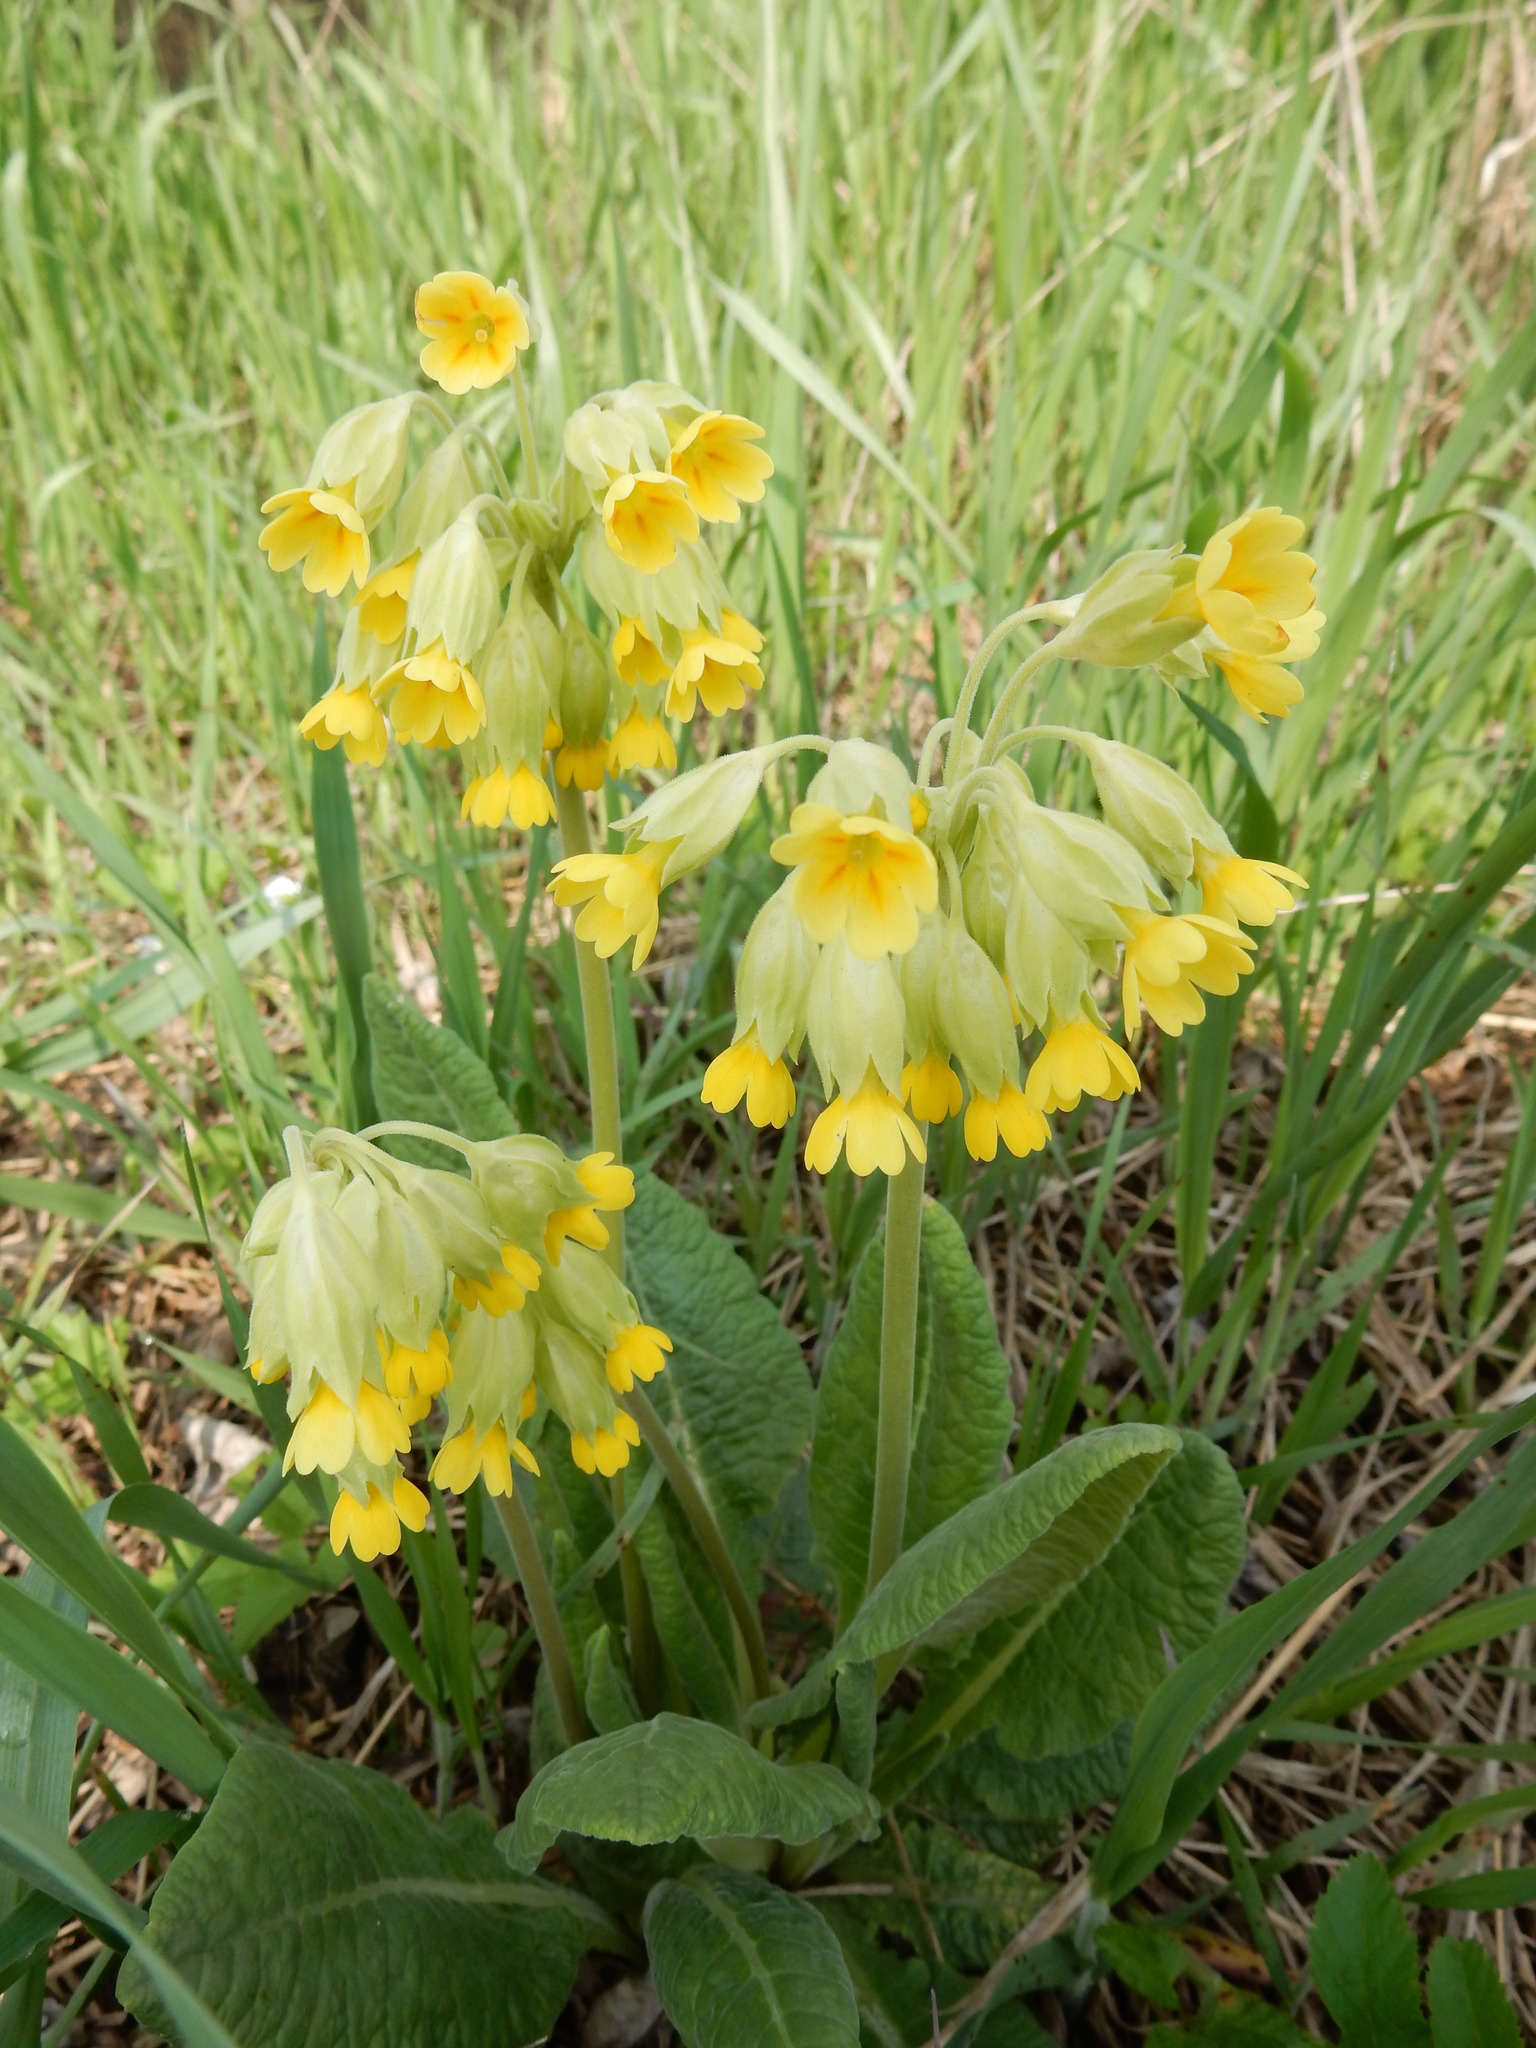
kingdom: Plantae
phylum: Tracheophyta
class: Magnoliopsida
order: Ericales
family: Primulaceae
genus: Primula
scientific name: Primula veris
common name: Cowslip
